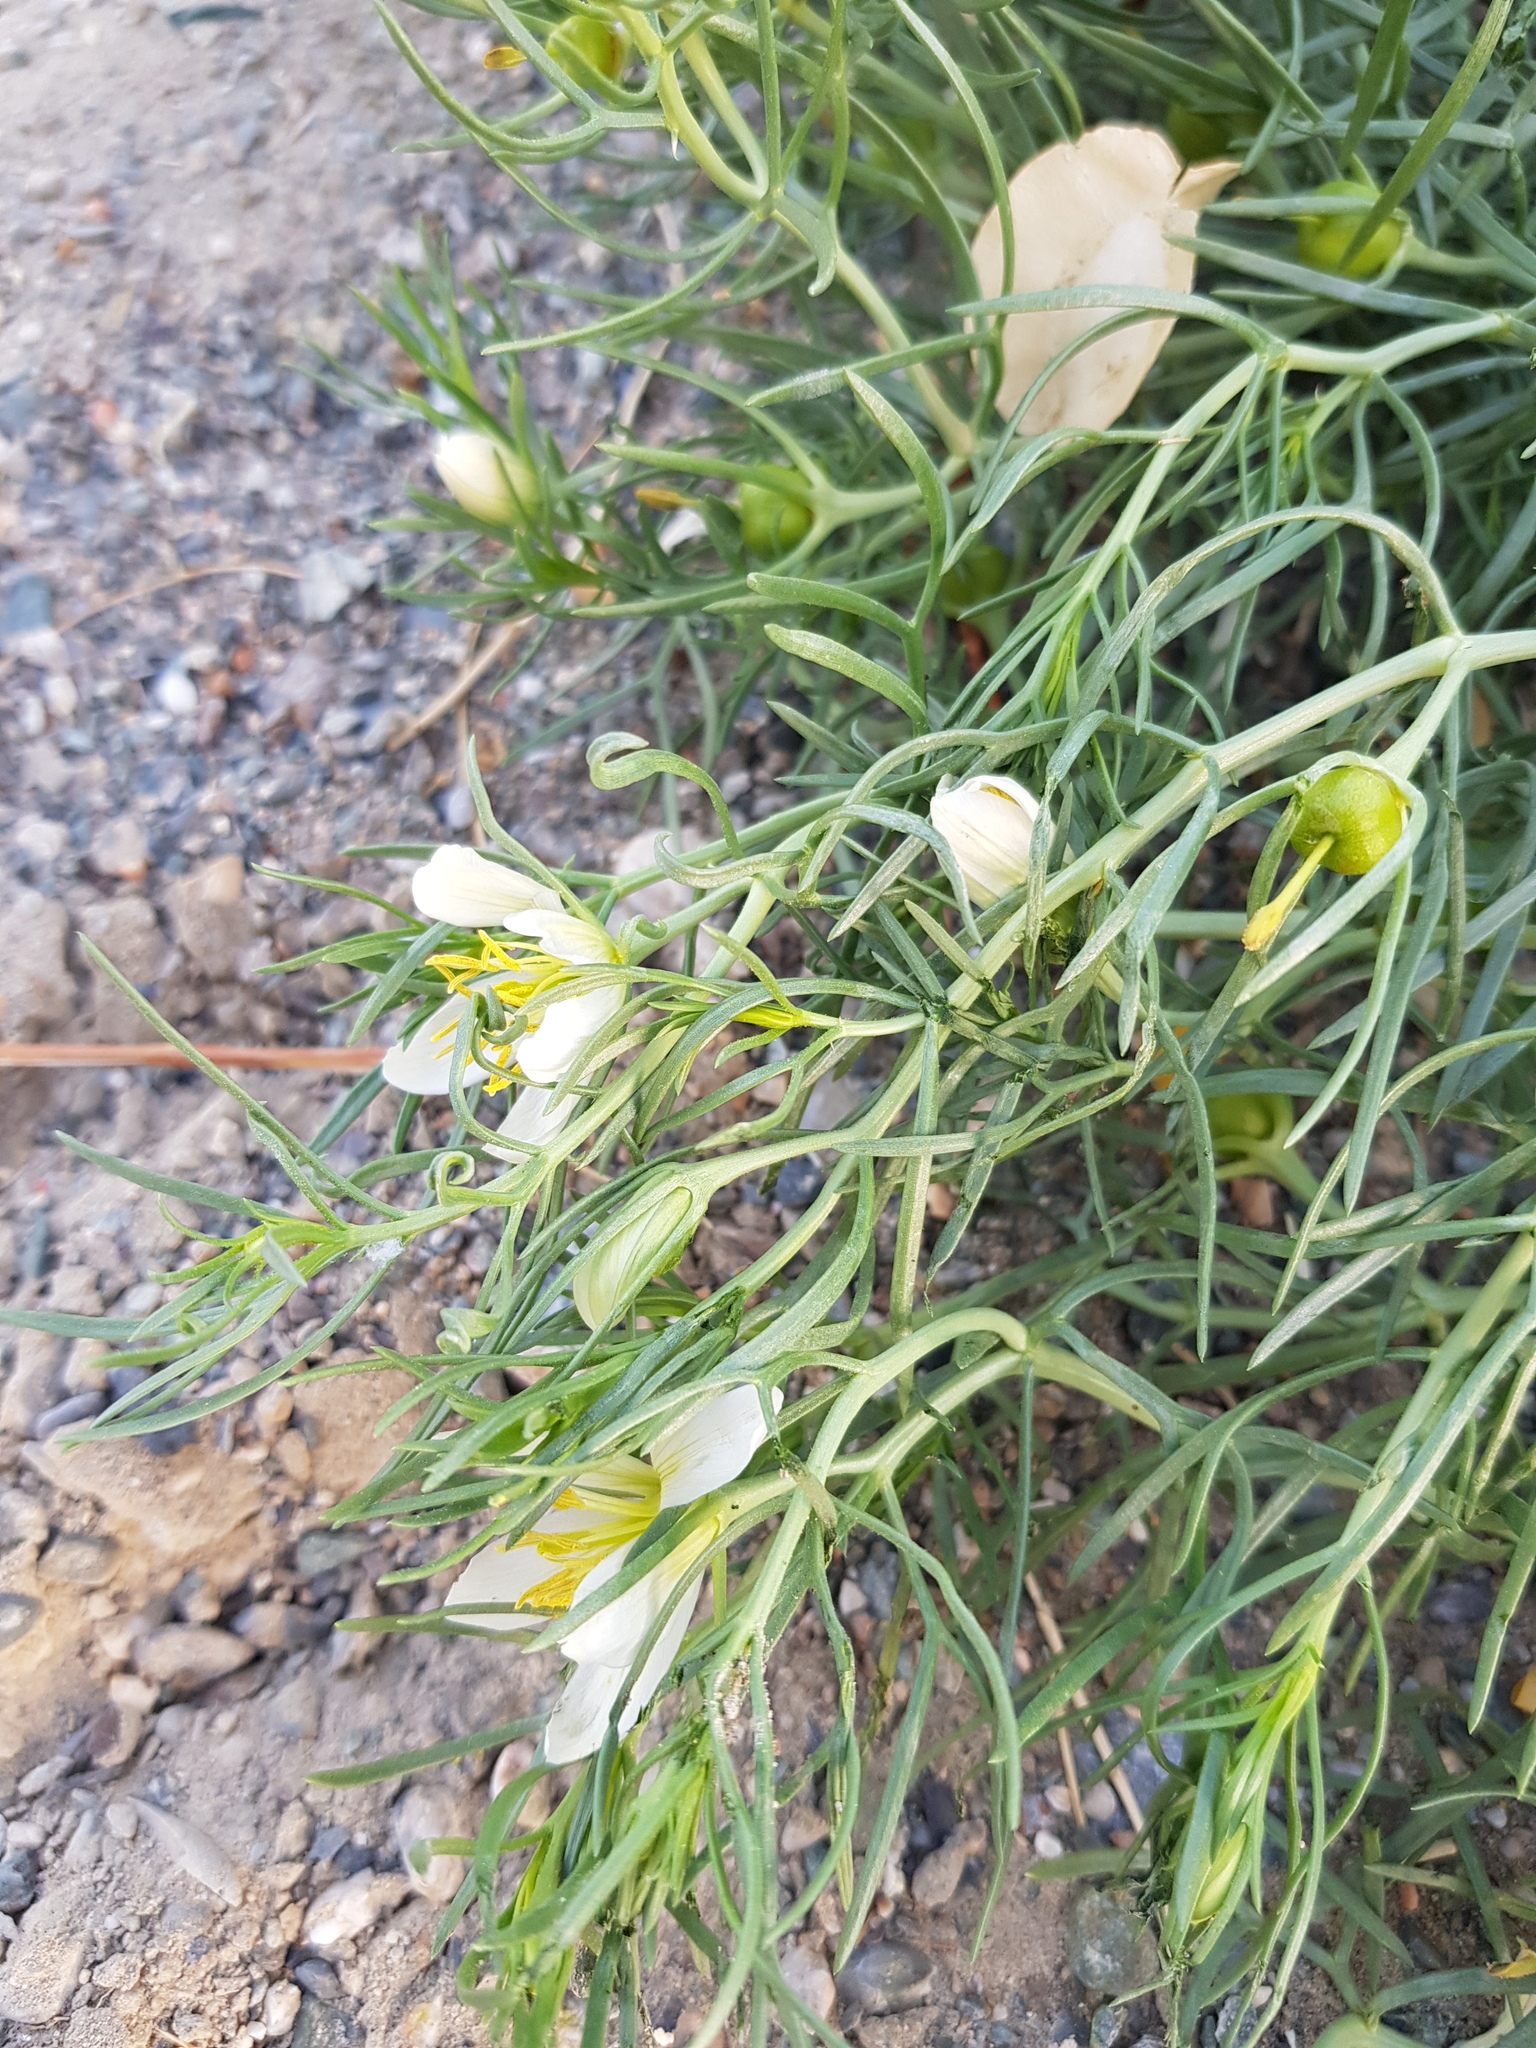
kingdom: Plantae
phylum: Tracheophyta
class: Magnoliopsida
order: Sapindales
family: Tetradiclidaceae
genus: Peganum
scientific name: Peganum harmala
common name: Harmal peganum
